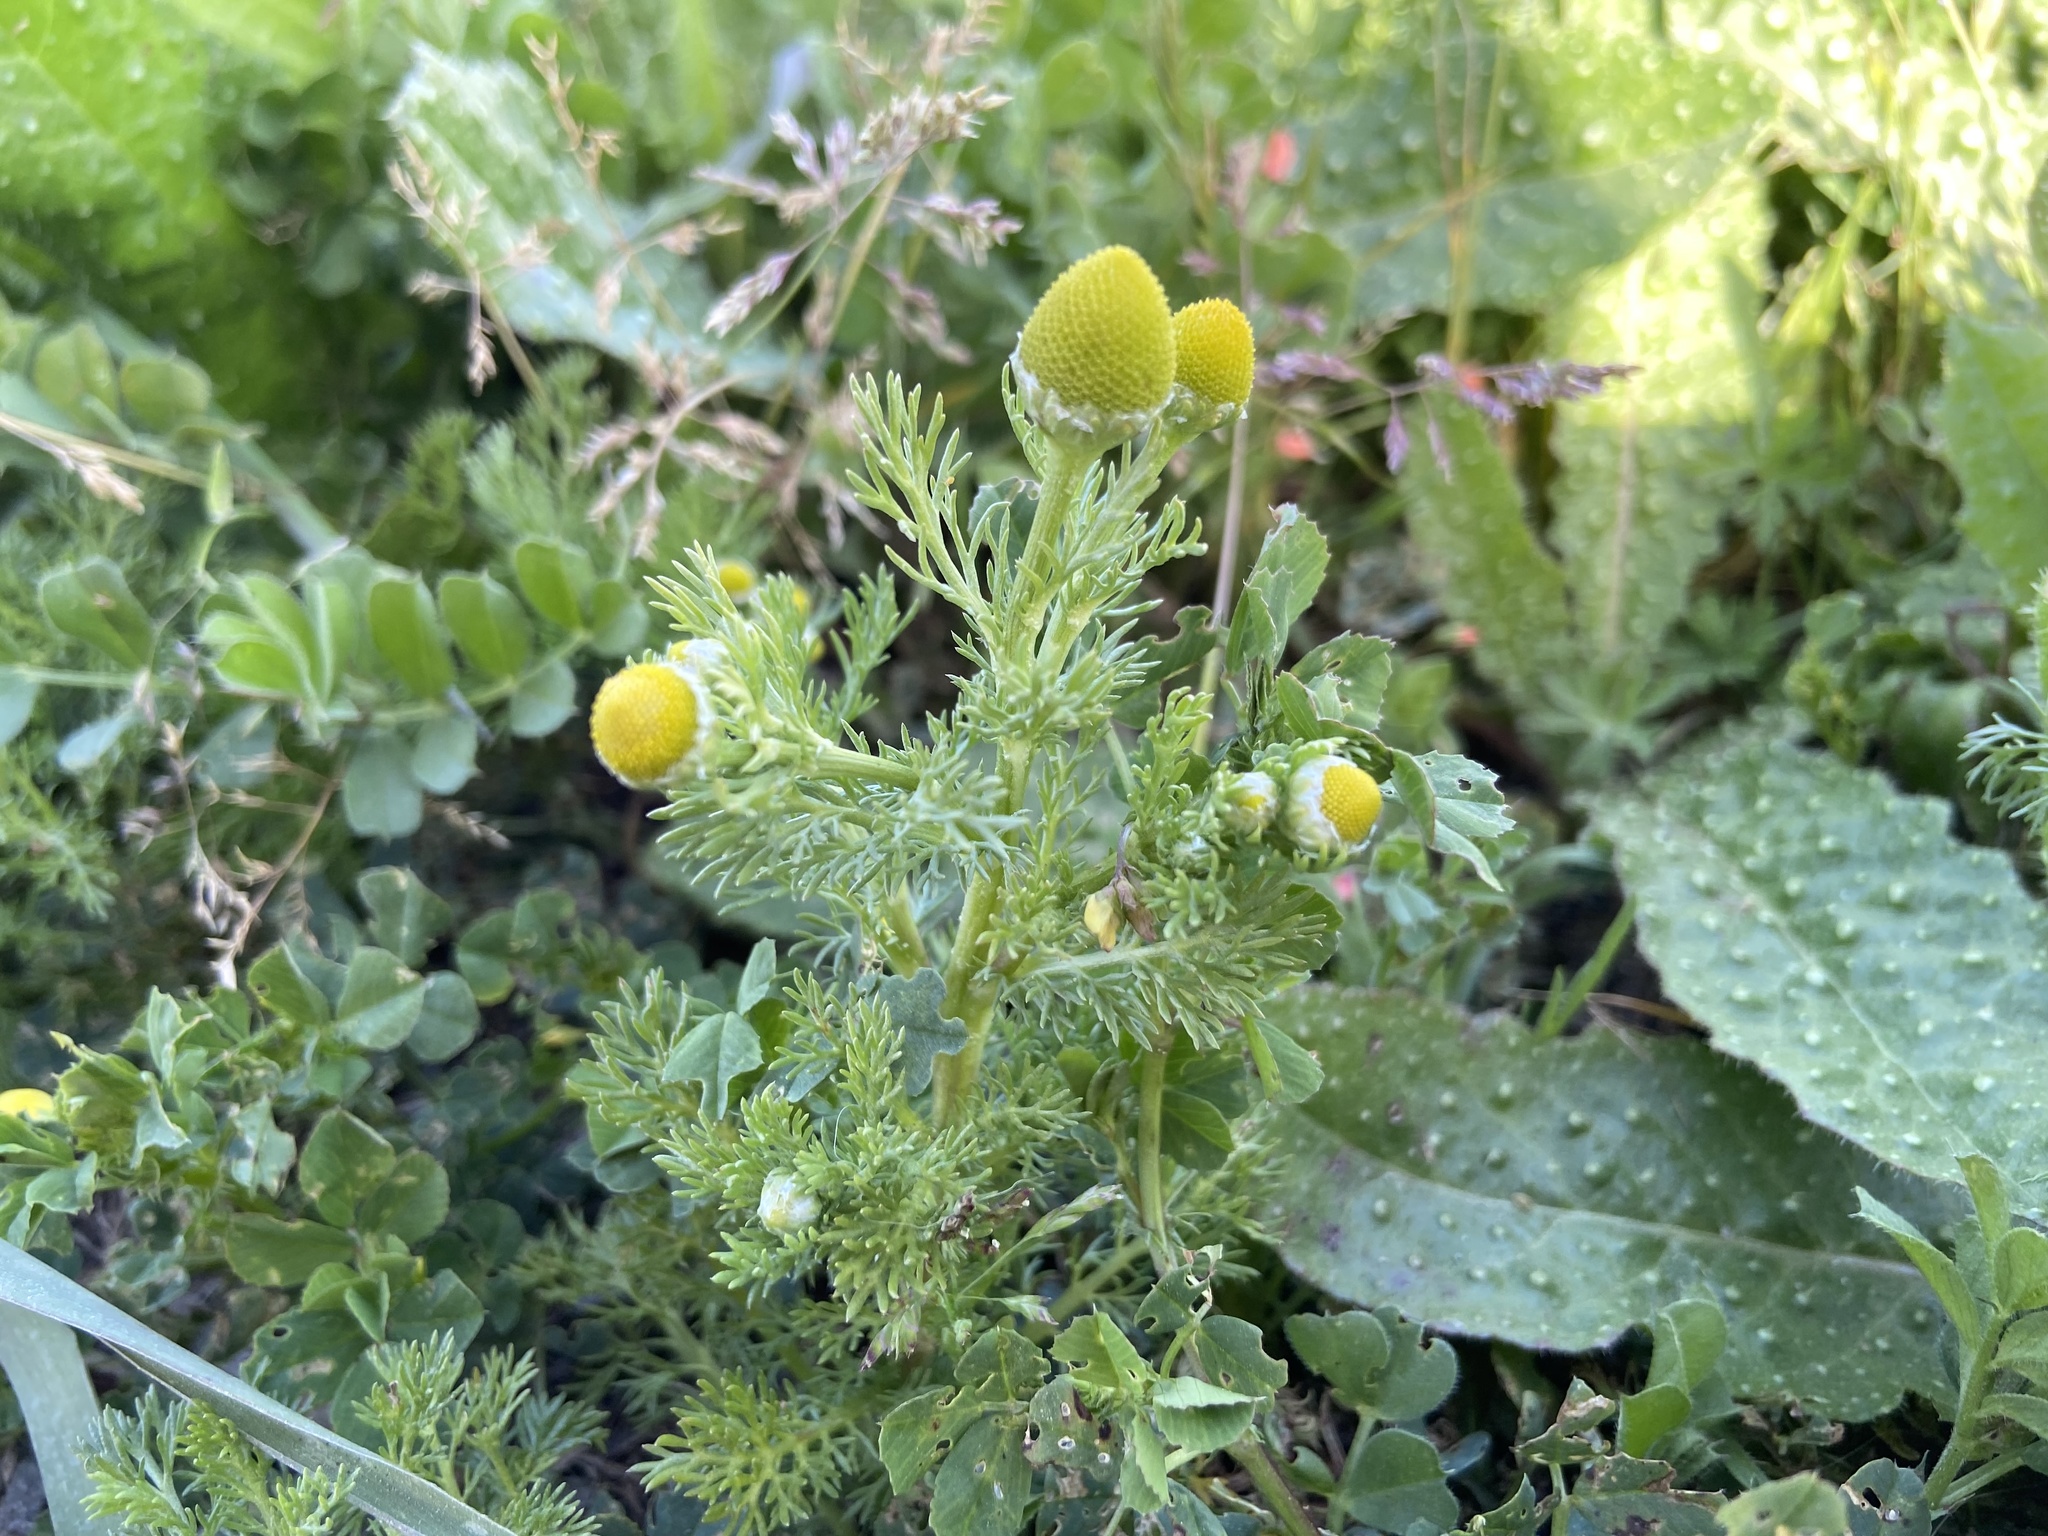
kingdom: Plantae
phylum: Tracheophyta
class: Magnoliopsida
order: Asterales
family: Asteraceae
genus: Matricaria
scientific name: Matricaria discoidea
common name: Disc mayweed
